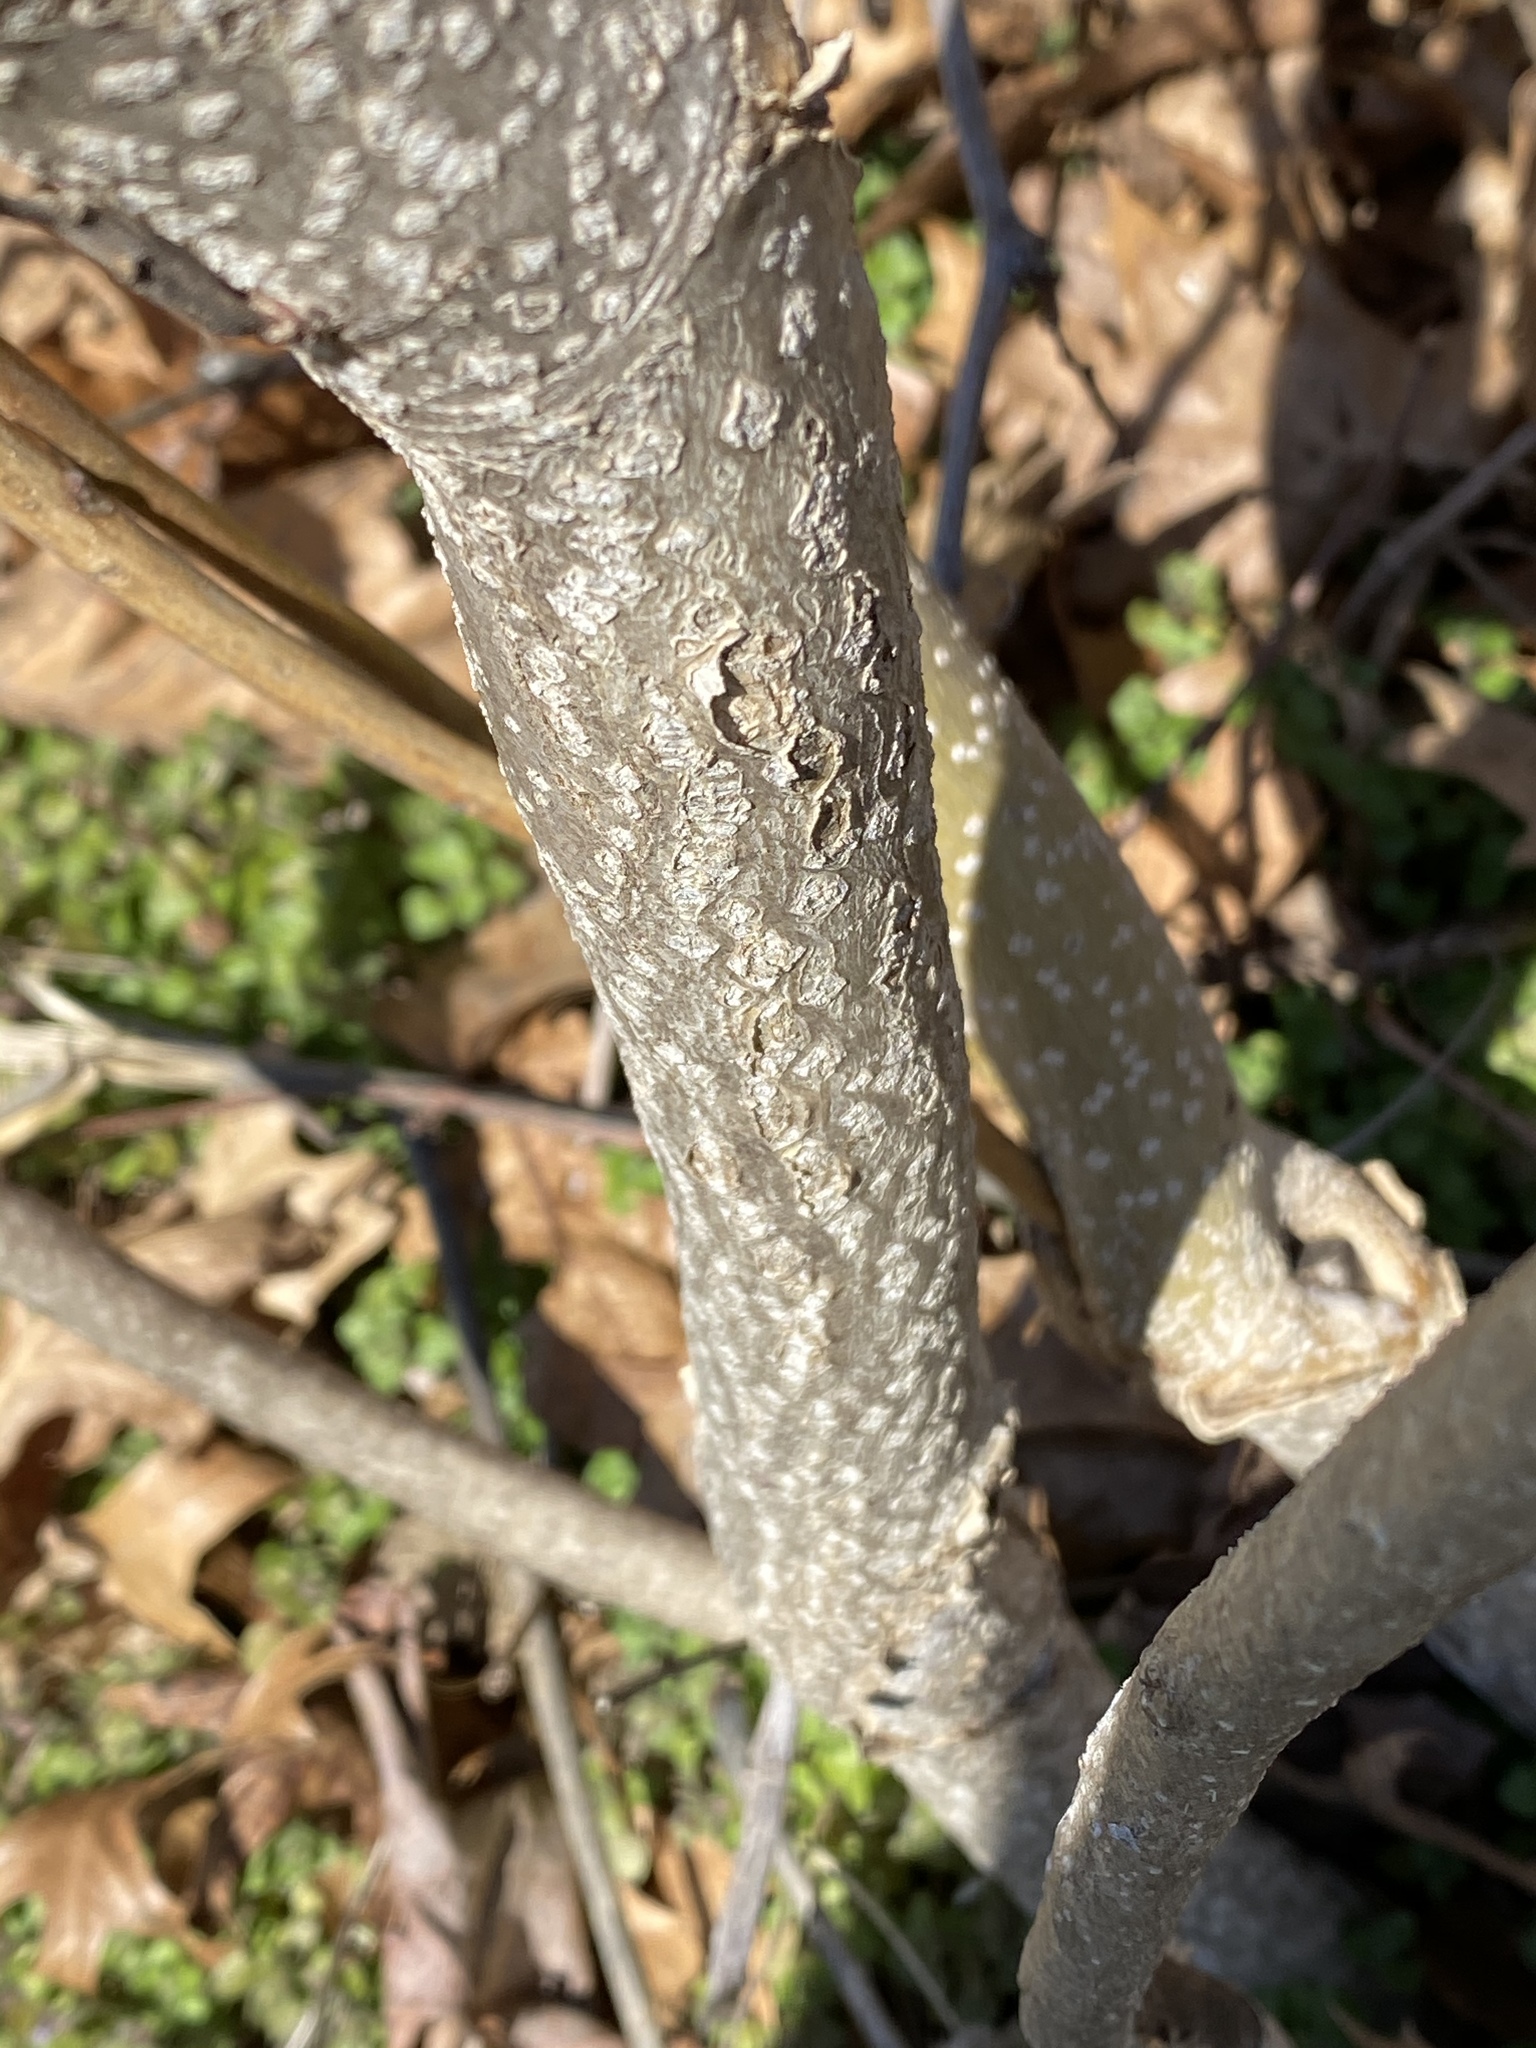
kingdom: Plantae
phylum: Tracheophyta
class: Magnoliopsida
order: Sapindales
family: Simaroubaceae
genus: Ailanthus
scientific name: Ailanthus altissima
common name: Tree-of-heaven
